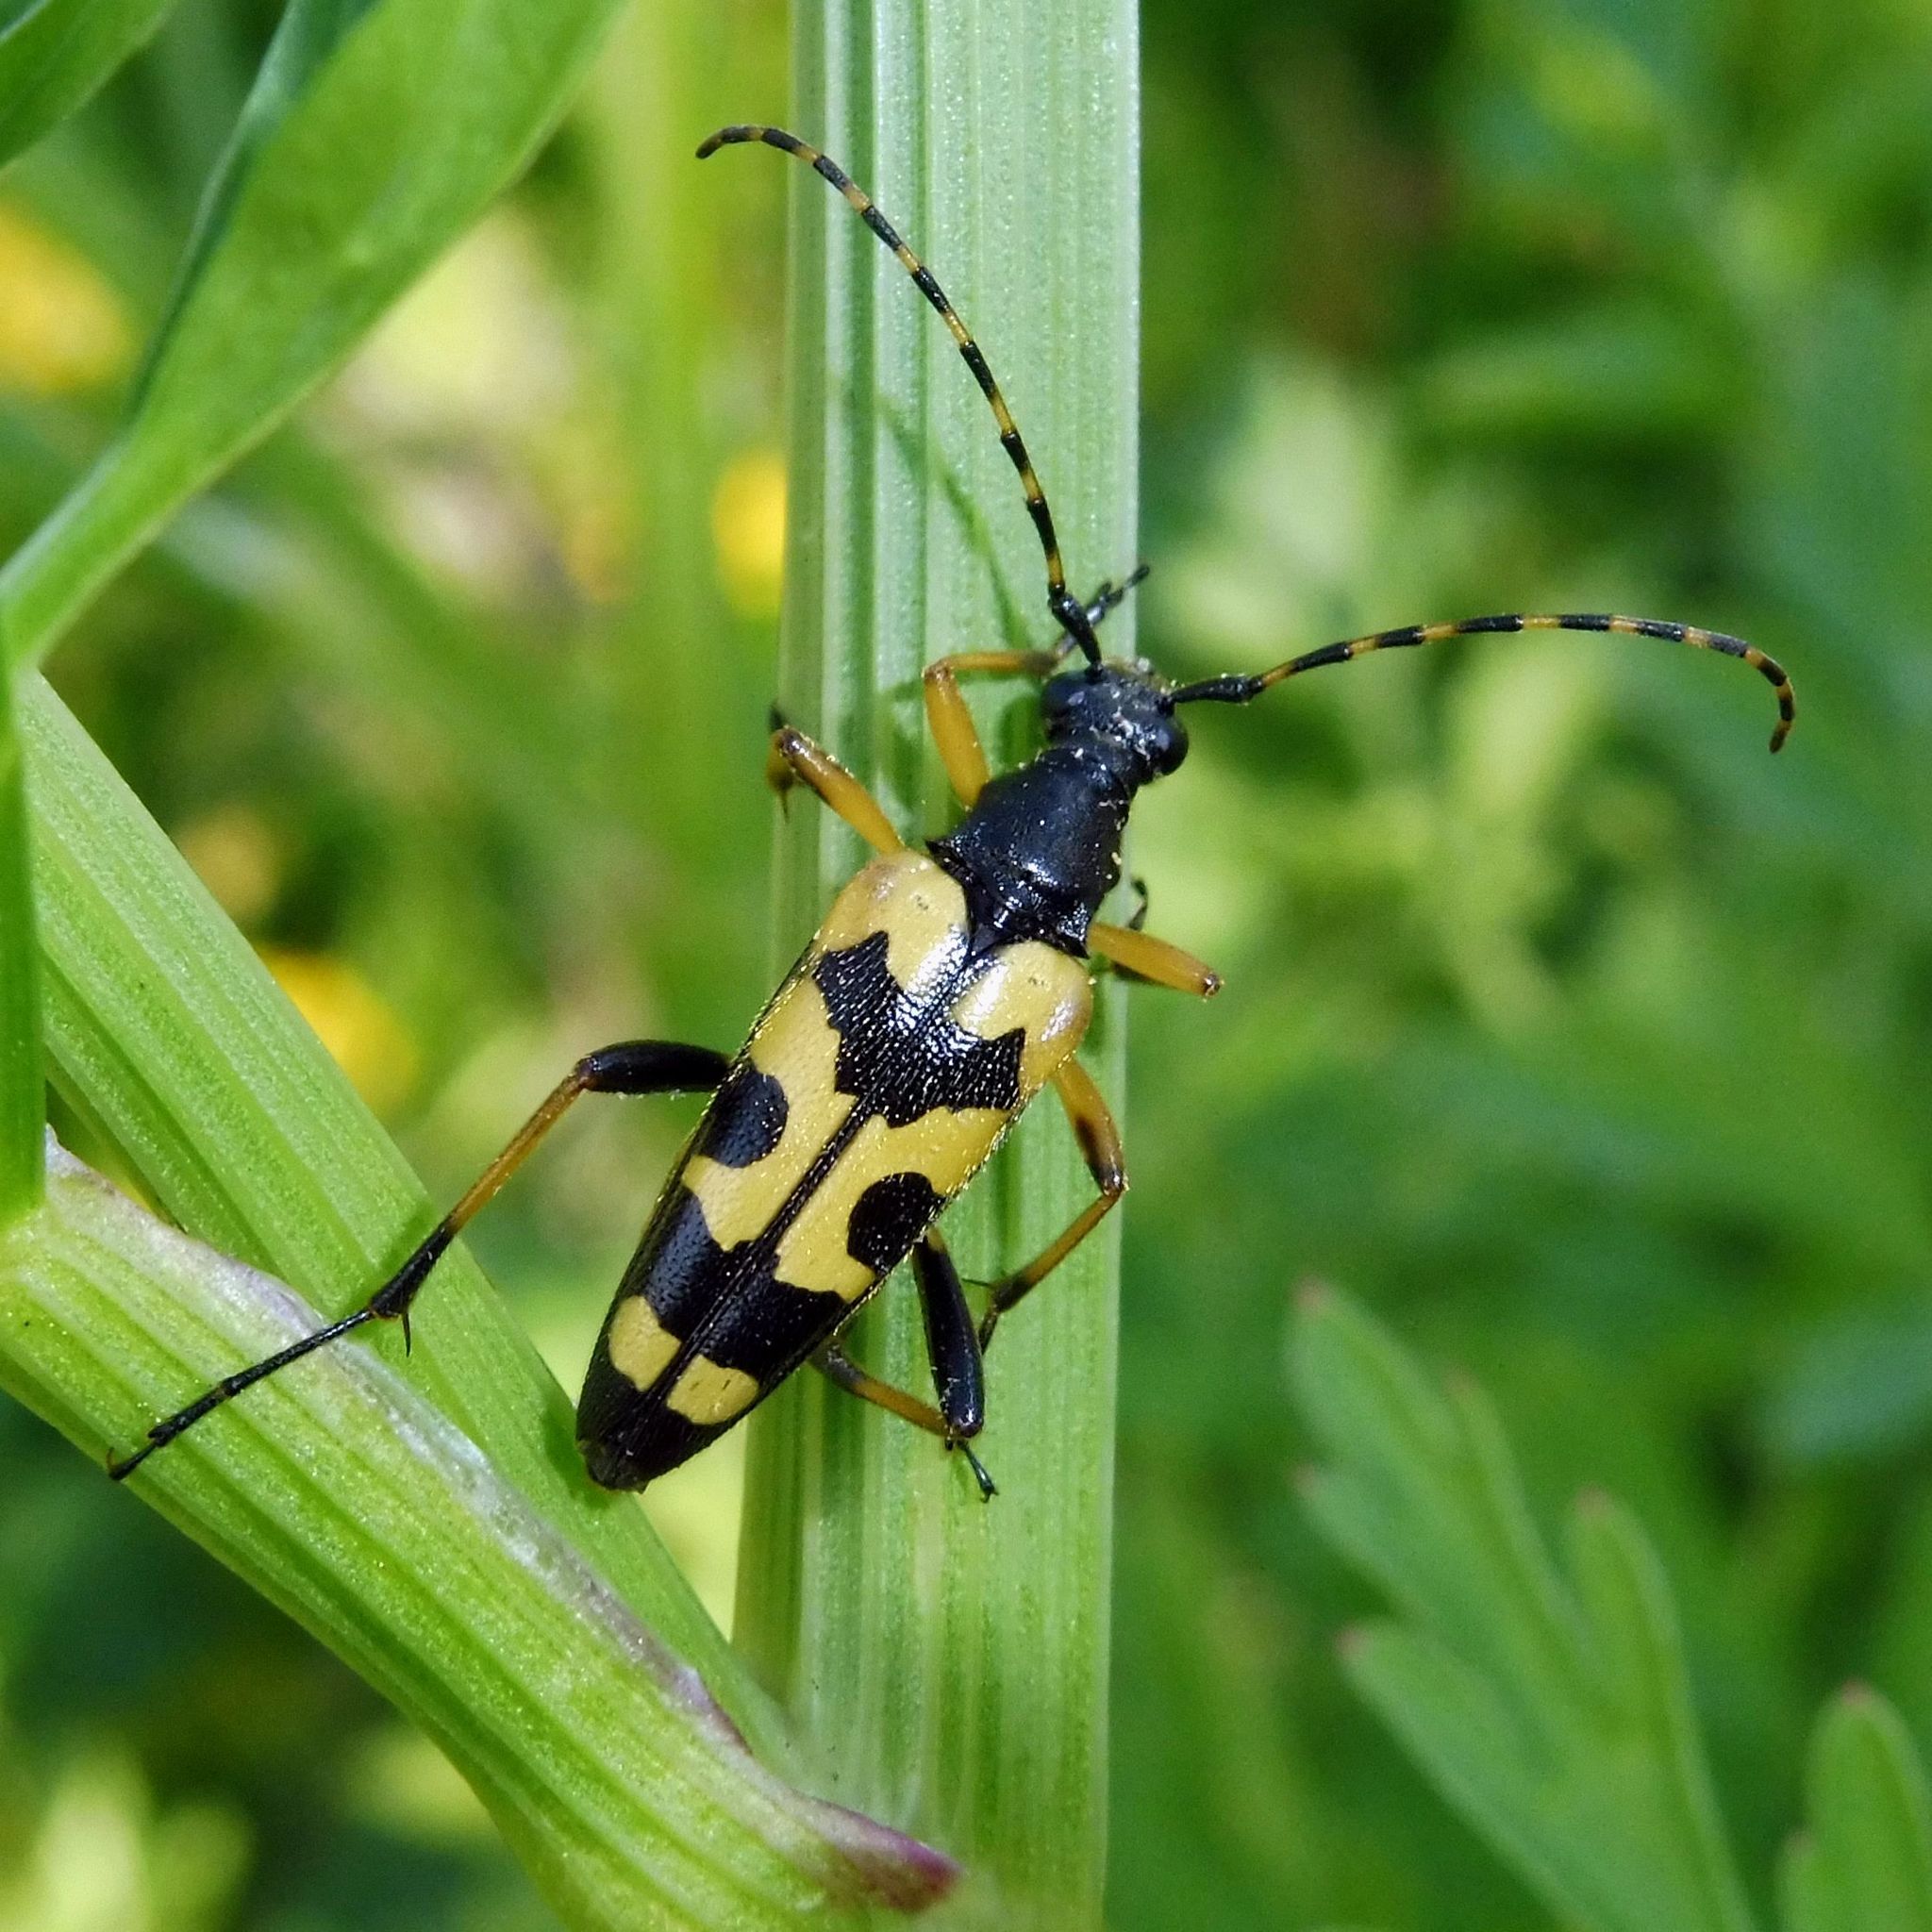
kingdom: Animalia
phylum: Arthropoda
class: Insecta
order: Coleoptera
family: Cerambycidae
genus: Rutpela
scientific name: Rutpela maculata
